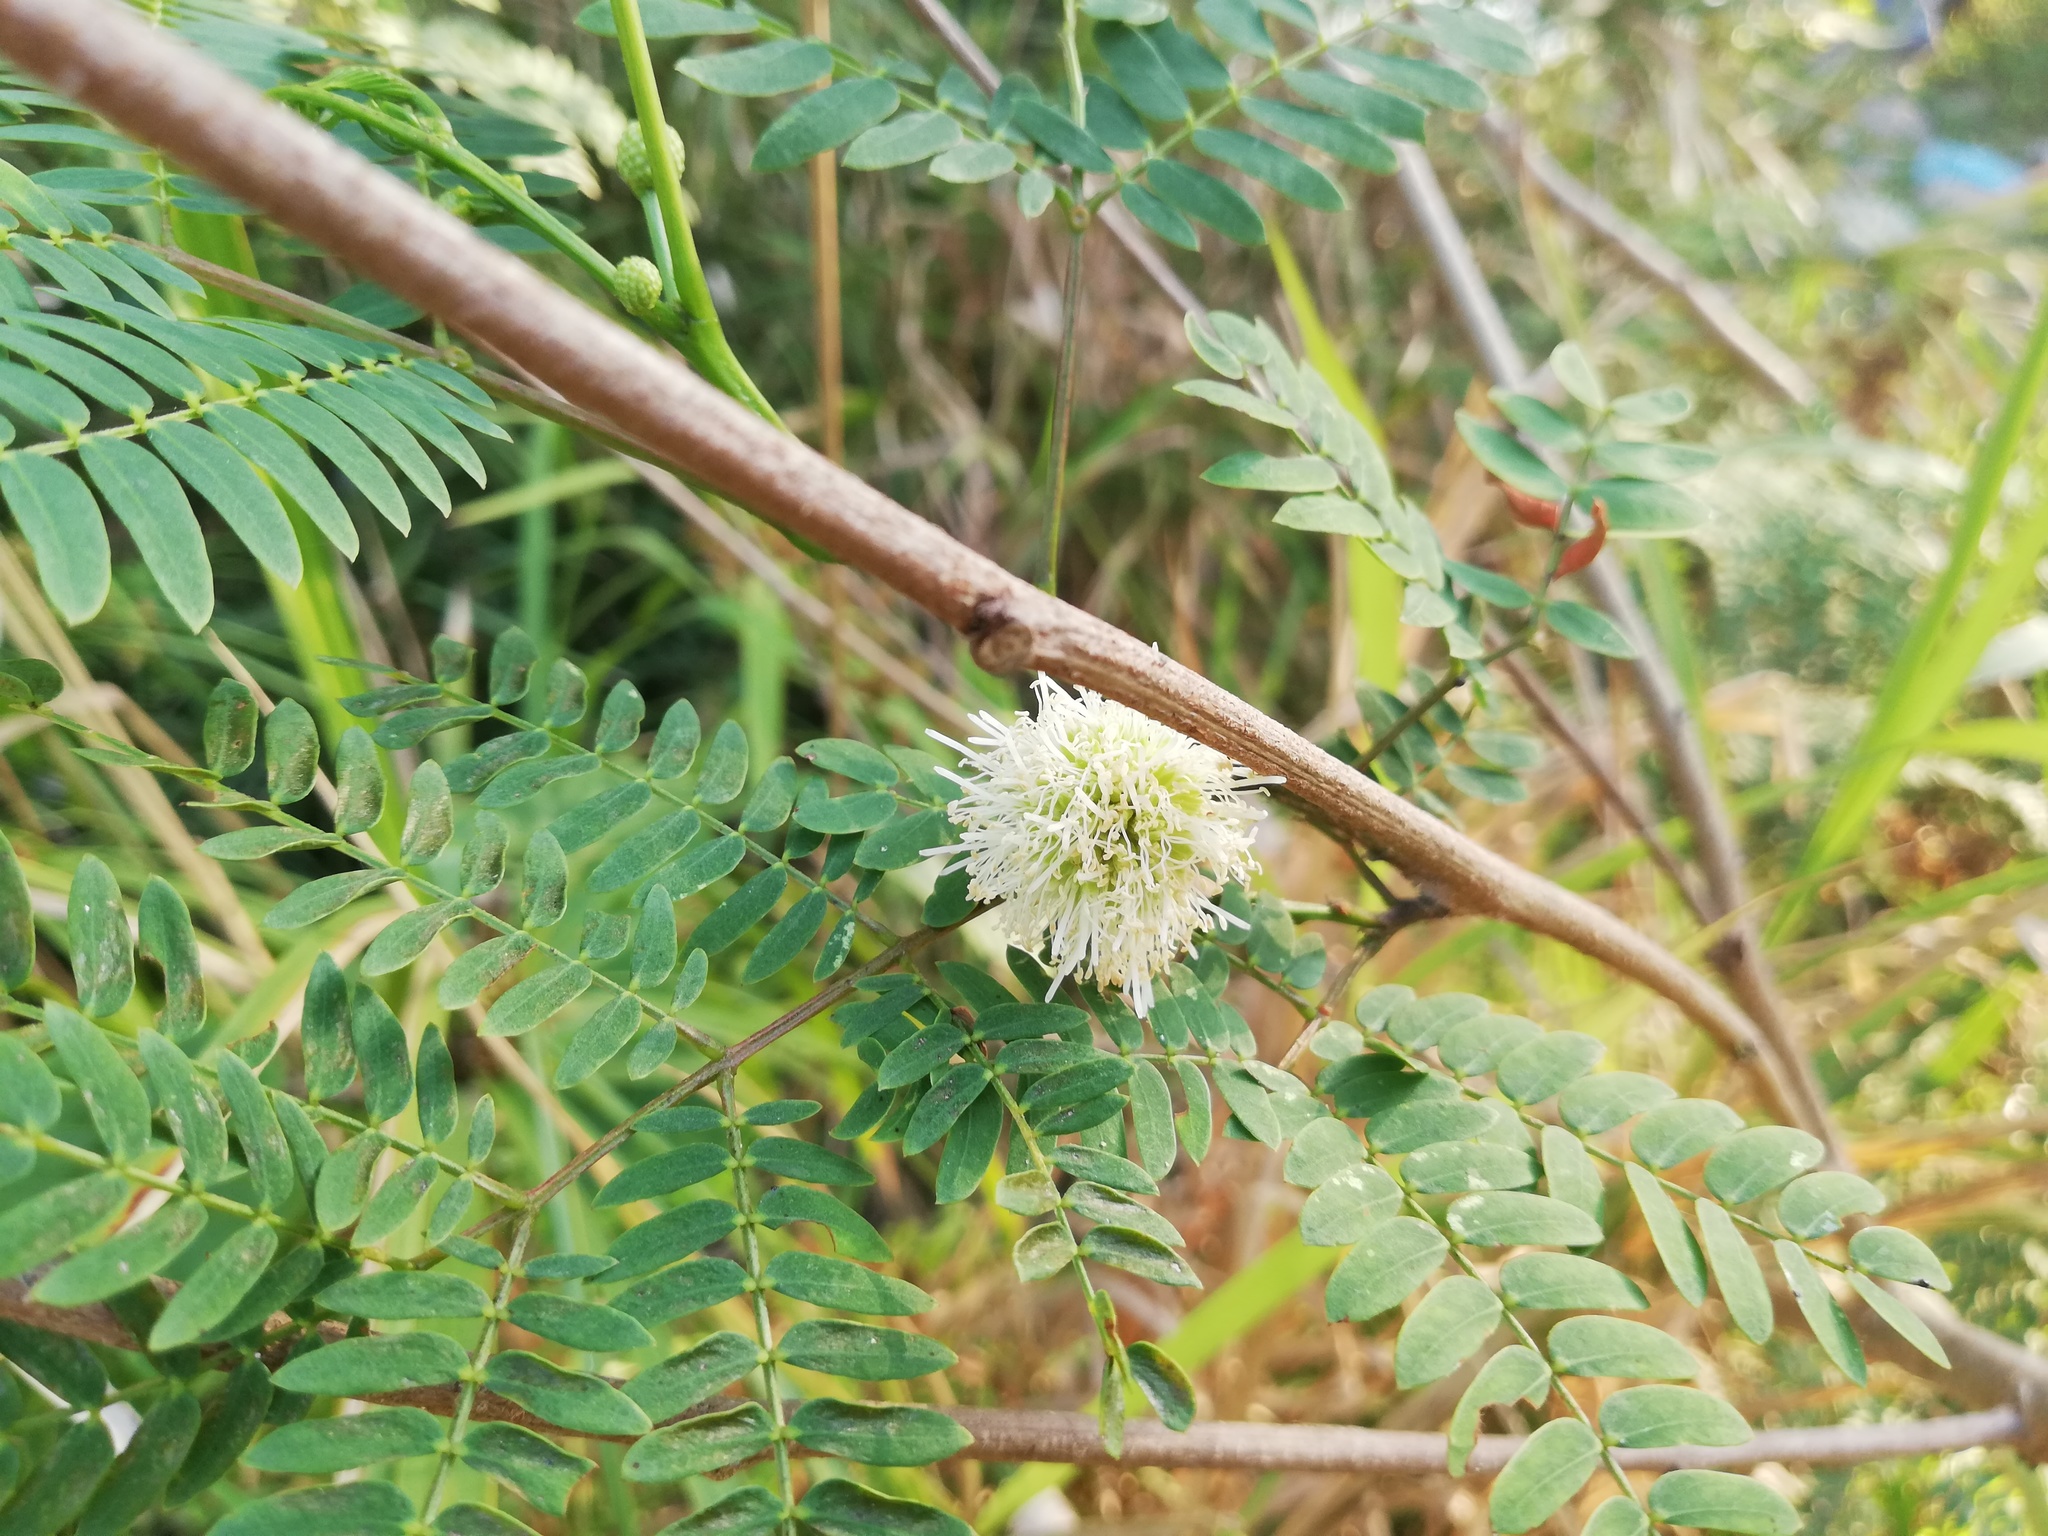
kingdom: Plantae
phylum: Tracheophyta
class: Magnoliopsida
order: Fabales
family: Fabaceae
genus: Leucaena
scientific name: Leucaena leucocephala
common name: White leadtree
